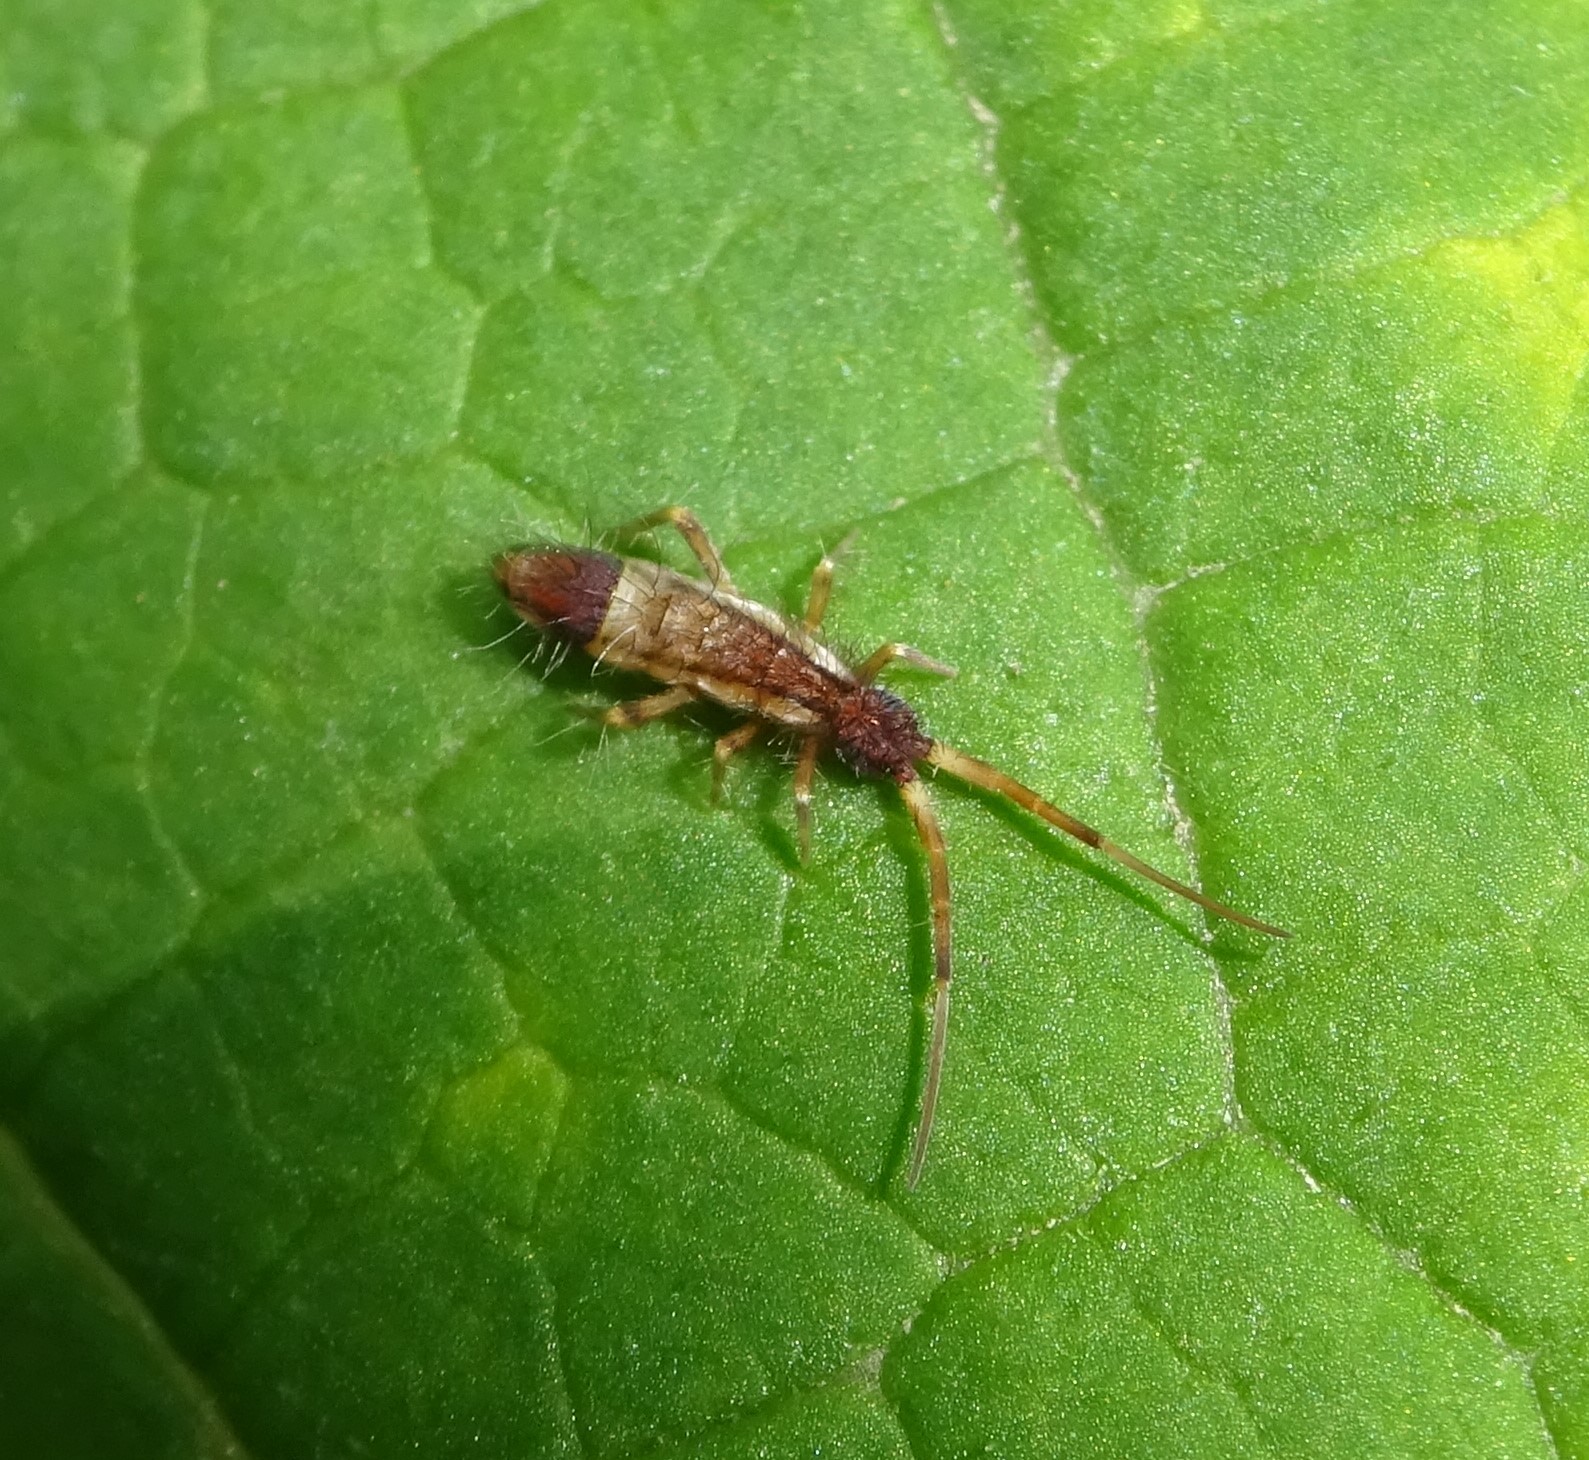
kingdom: Animalia
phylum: Arthropoda
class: Collembola
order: Entomobryomorpha
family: Entomobryidae
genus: Entomobrya
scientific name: Entomobrya nivalis
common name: Cosmopolitan springtail
